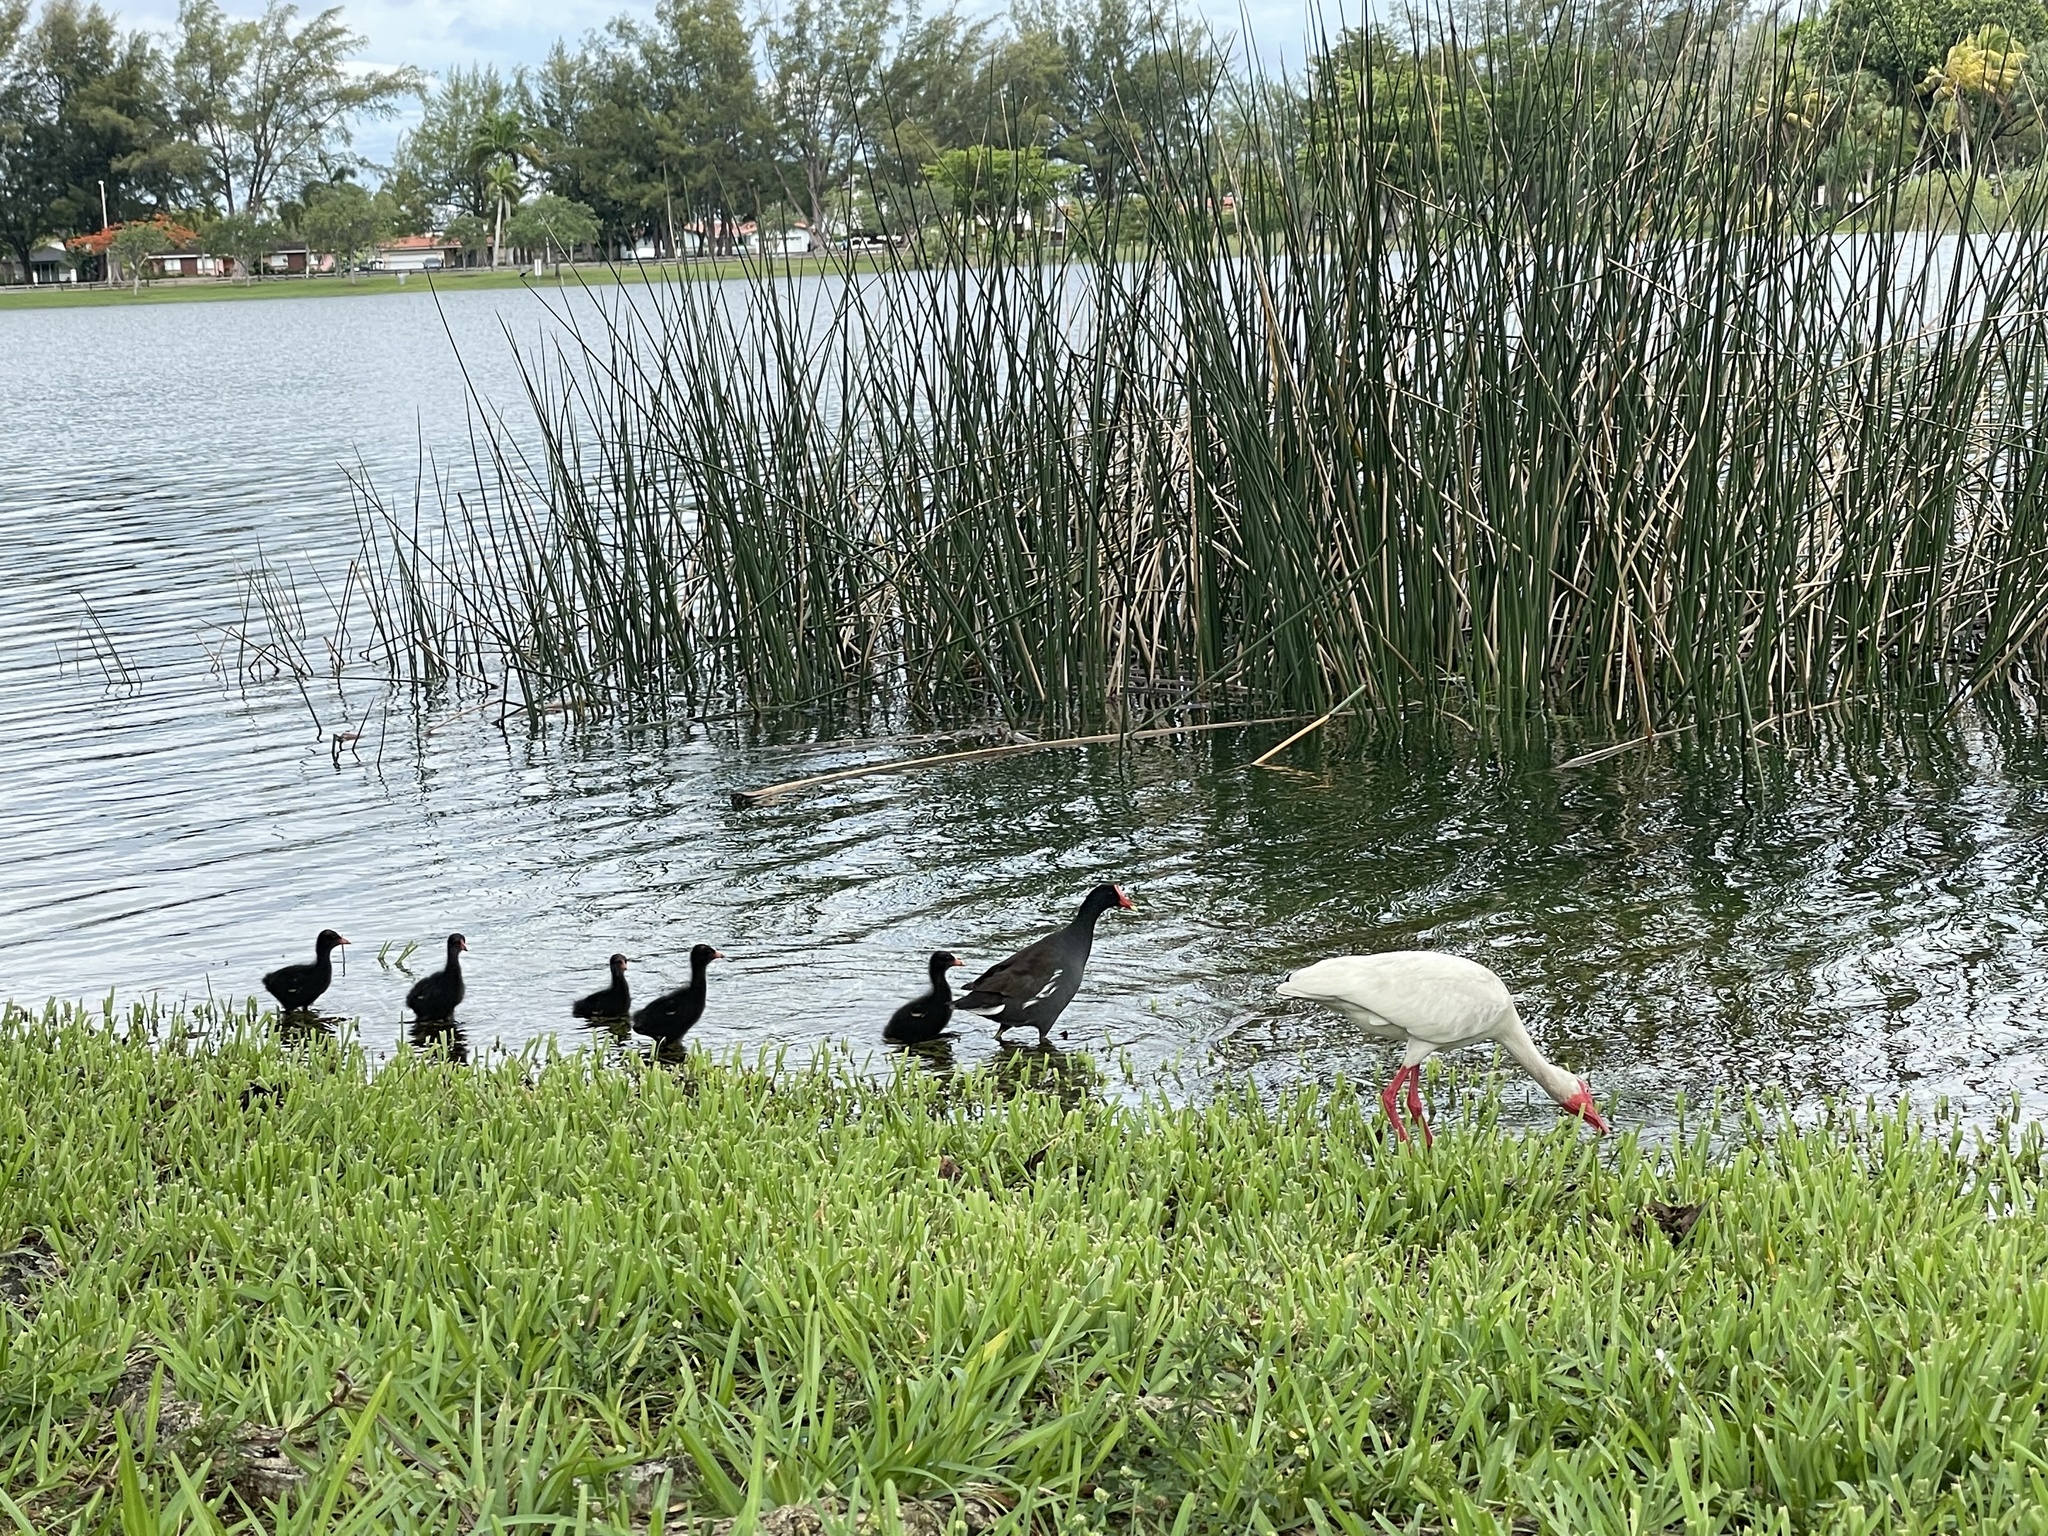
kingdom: Animalia
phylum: Chordata
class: Aves
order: Gruiformes
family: Rallidae
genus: Gallinula
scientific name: Gallinula chloropus
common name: Common moorhen
